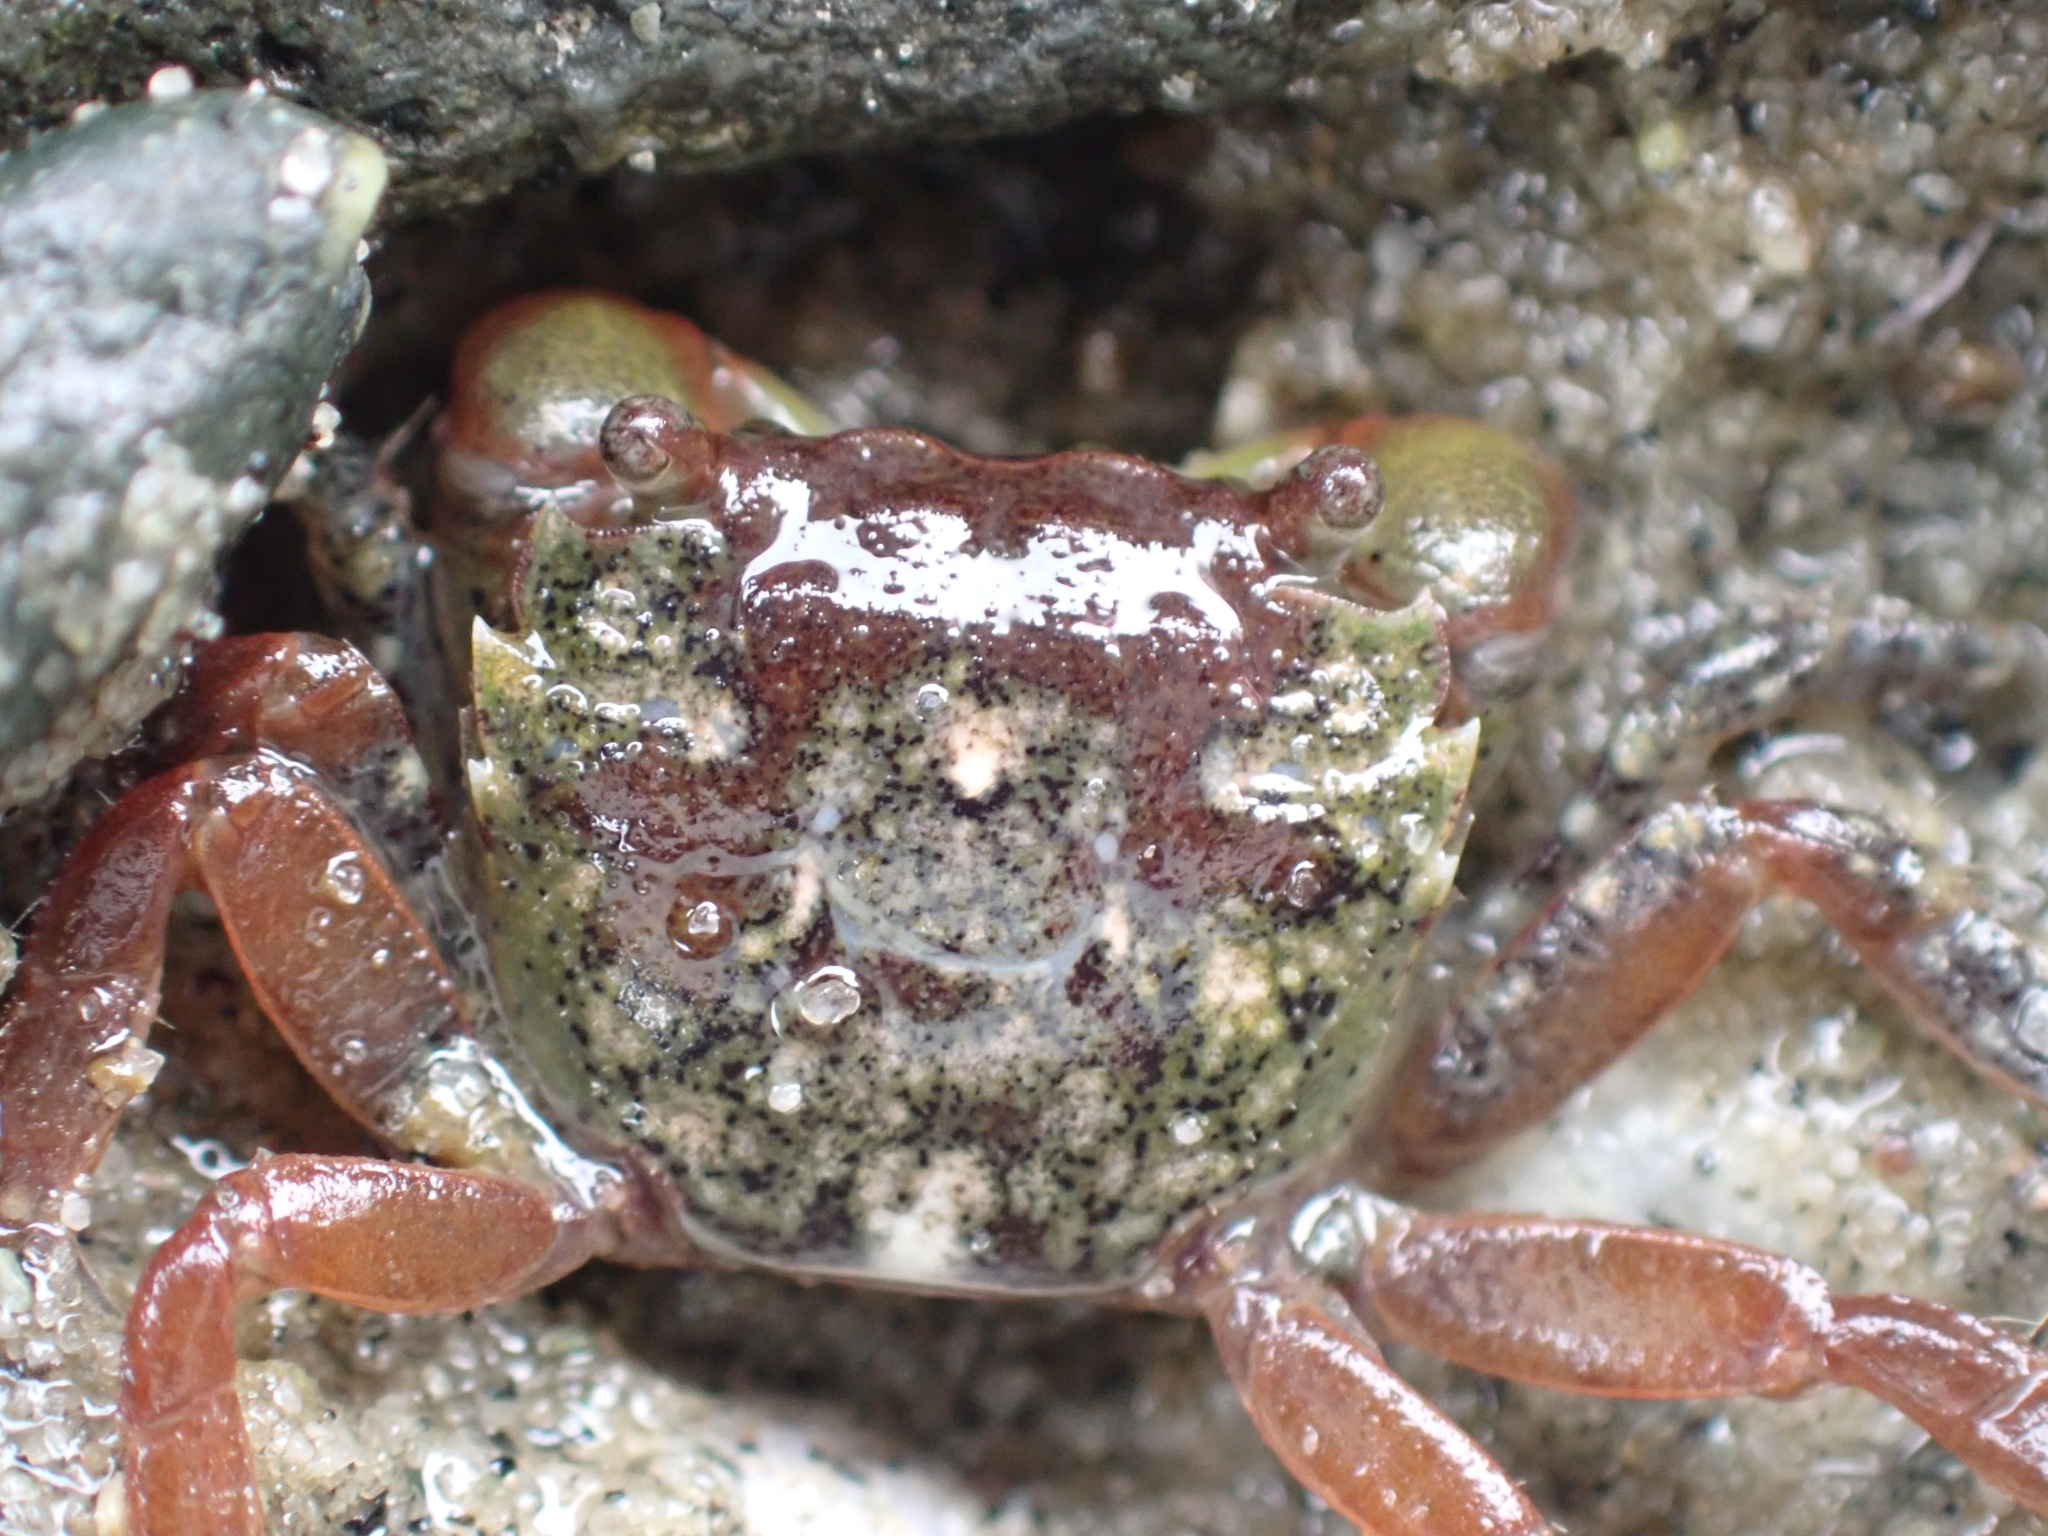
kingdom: Animalia
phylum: Arthropoda
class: Malacostraca
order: Decapoda
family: Varunidae
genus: Hemigrapsus
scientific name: Hemigrapsus oregonensis
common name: Yellow shore crab
